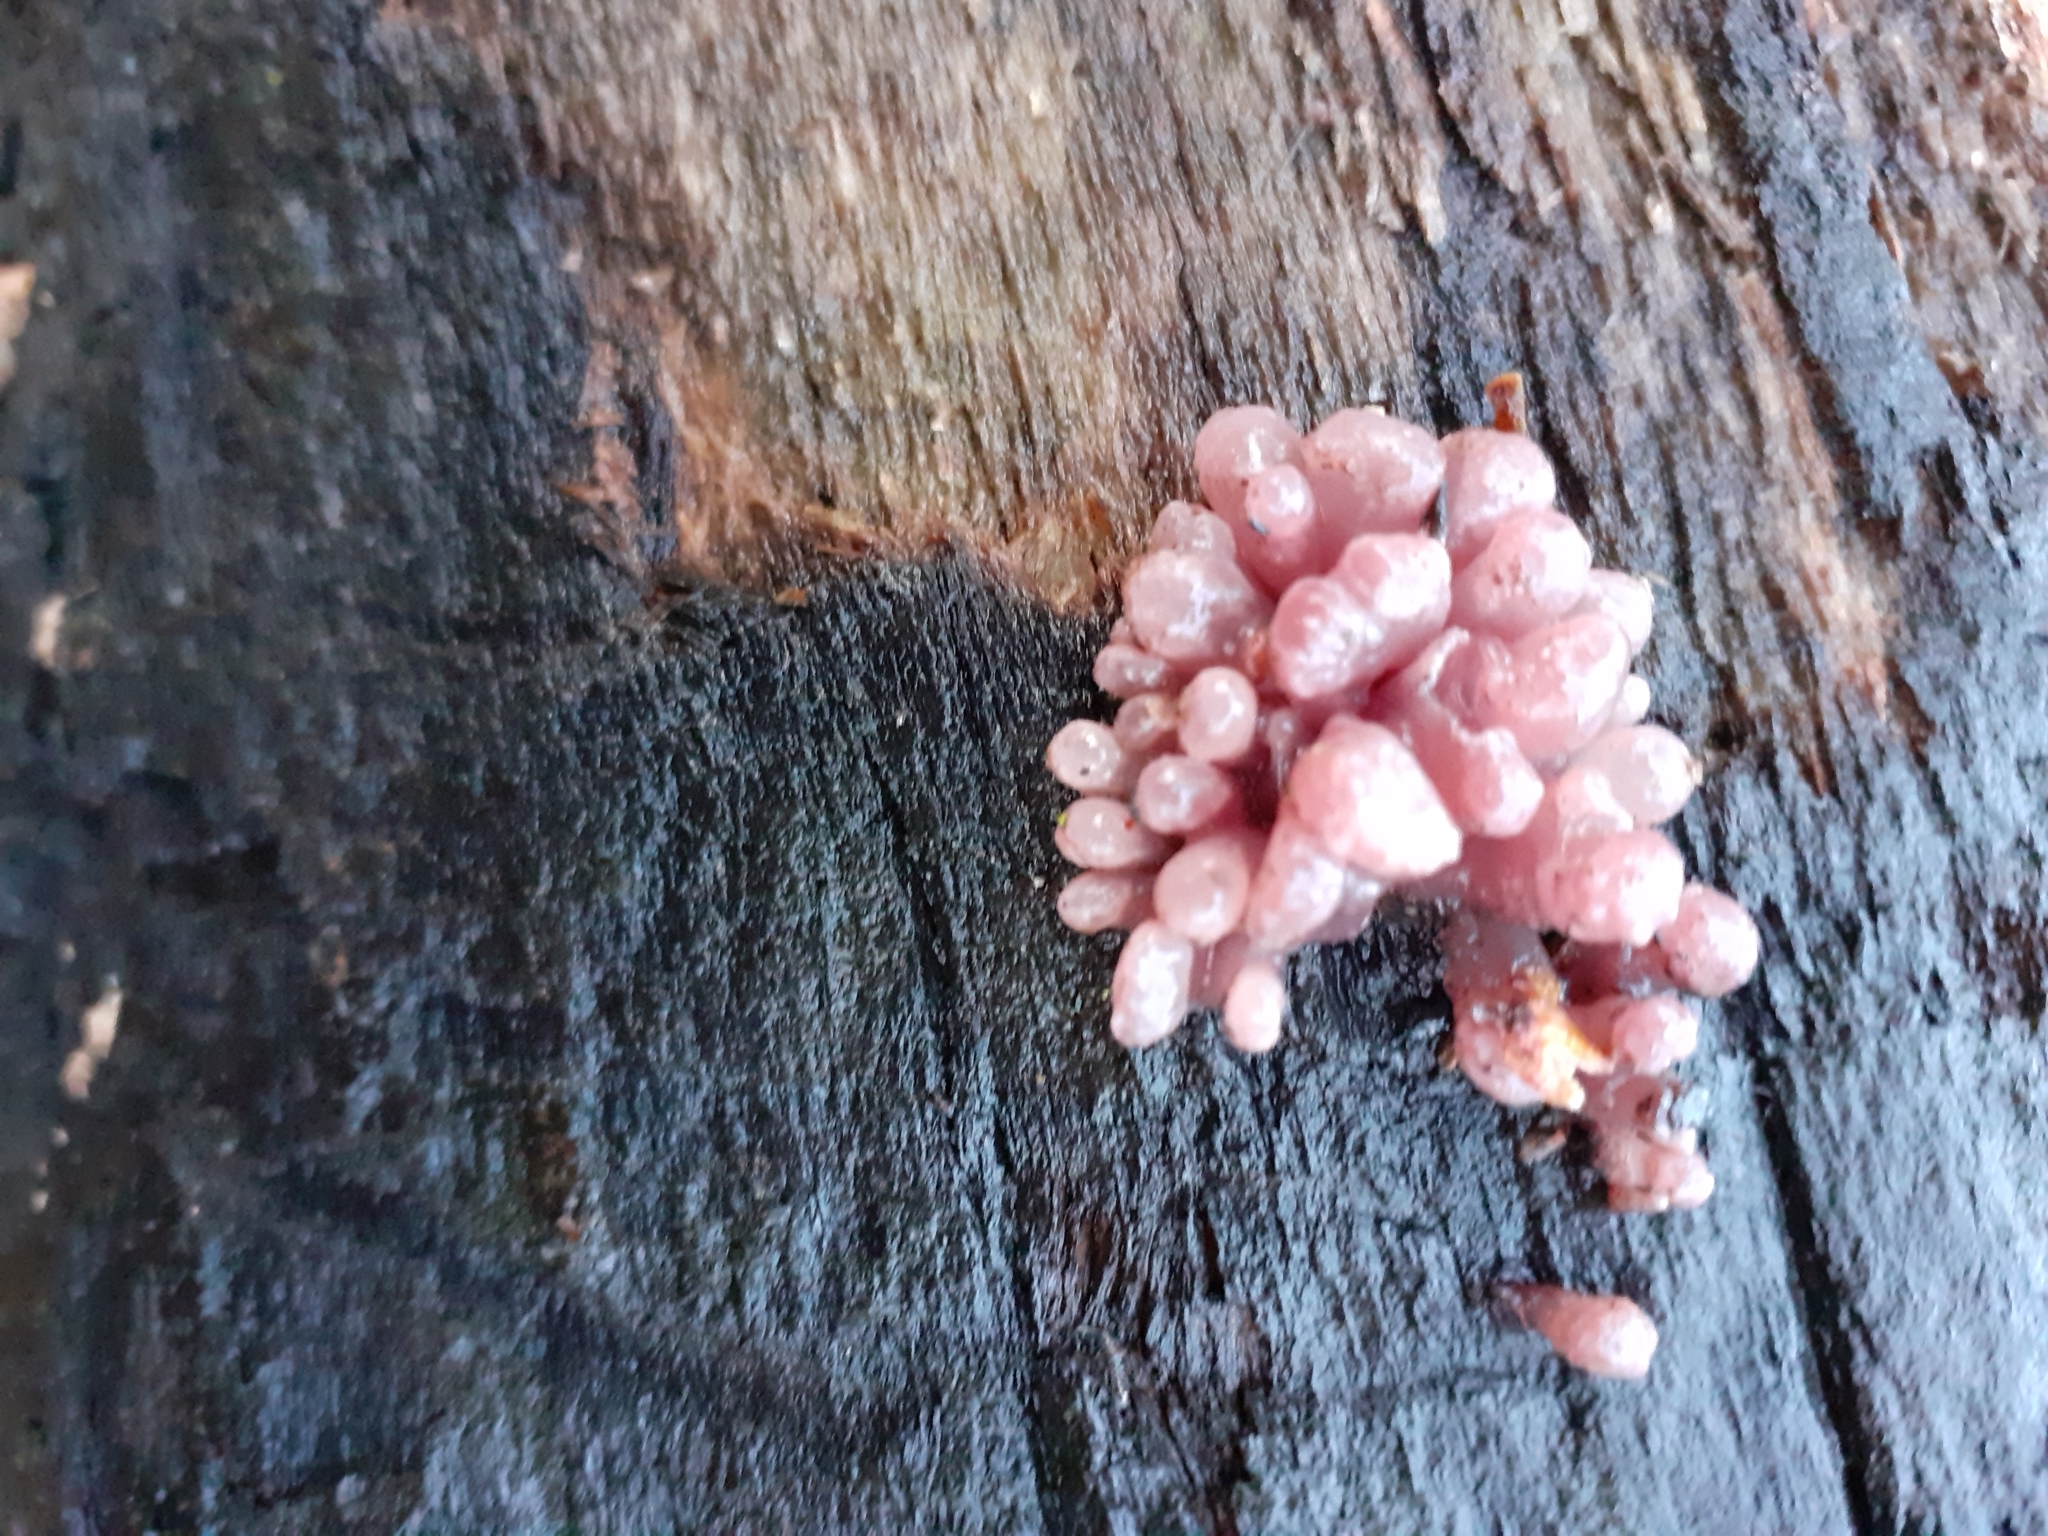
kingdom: Fungi
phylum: Ascomycota
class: Leotiomycetes
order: Helotiales
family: Gelatinodiscaceae
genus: Ascocoryne
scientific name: Ascocoryne sarcoides
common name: Purple jellydisc
